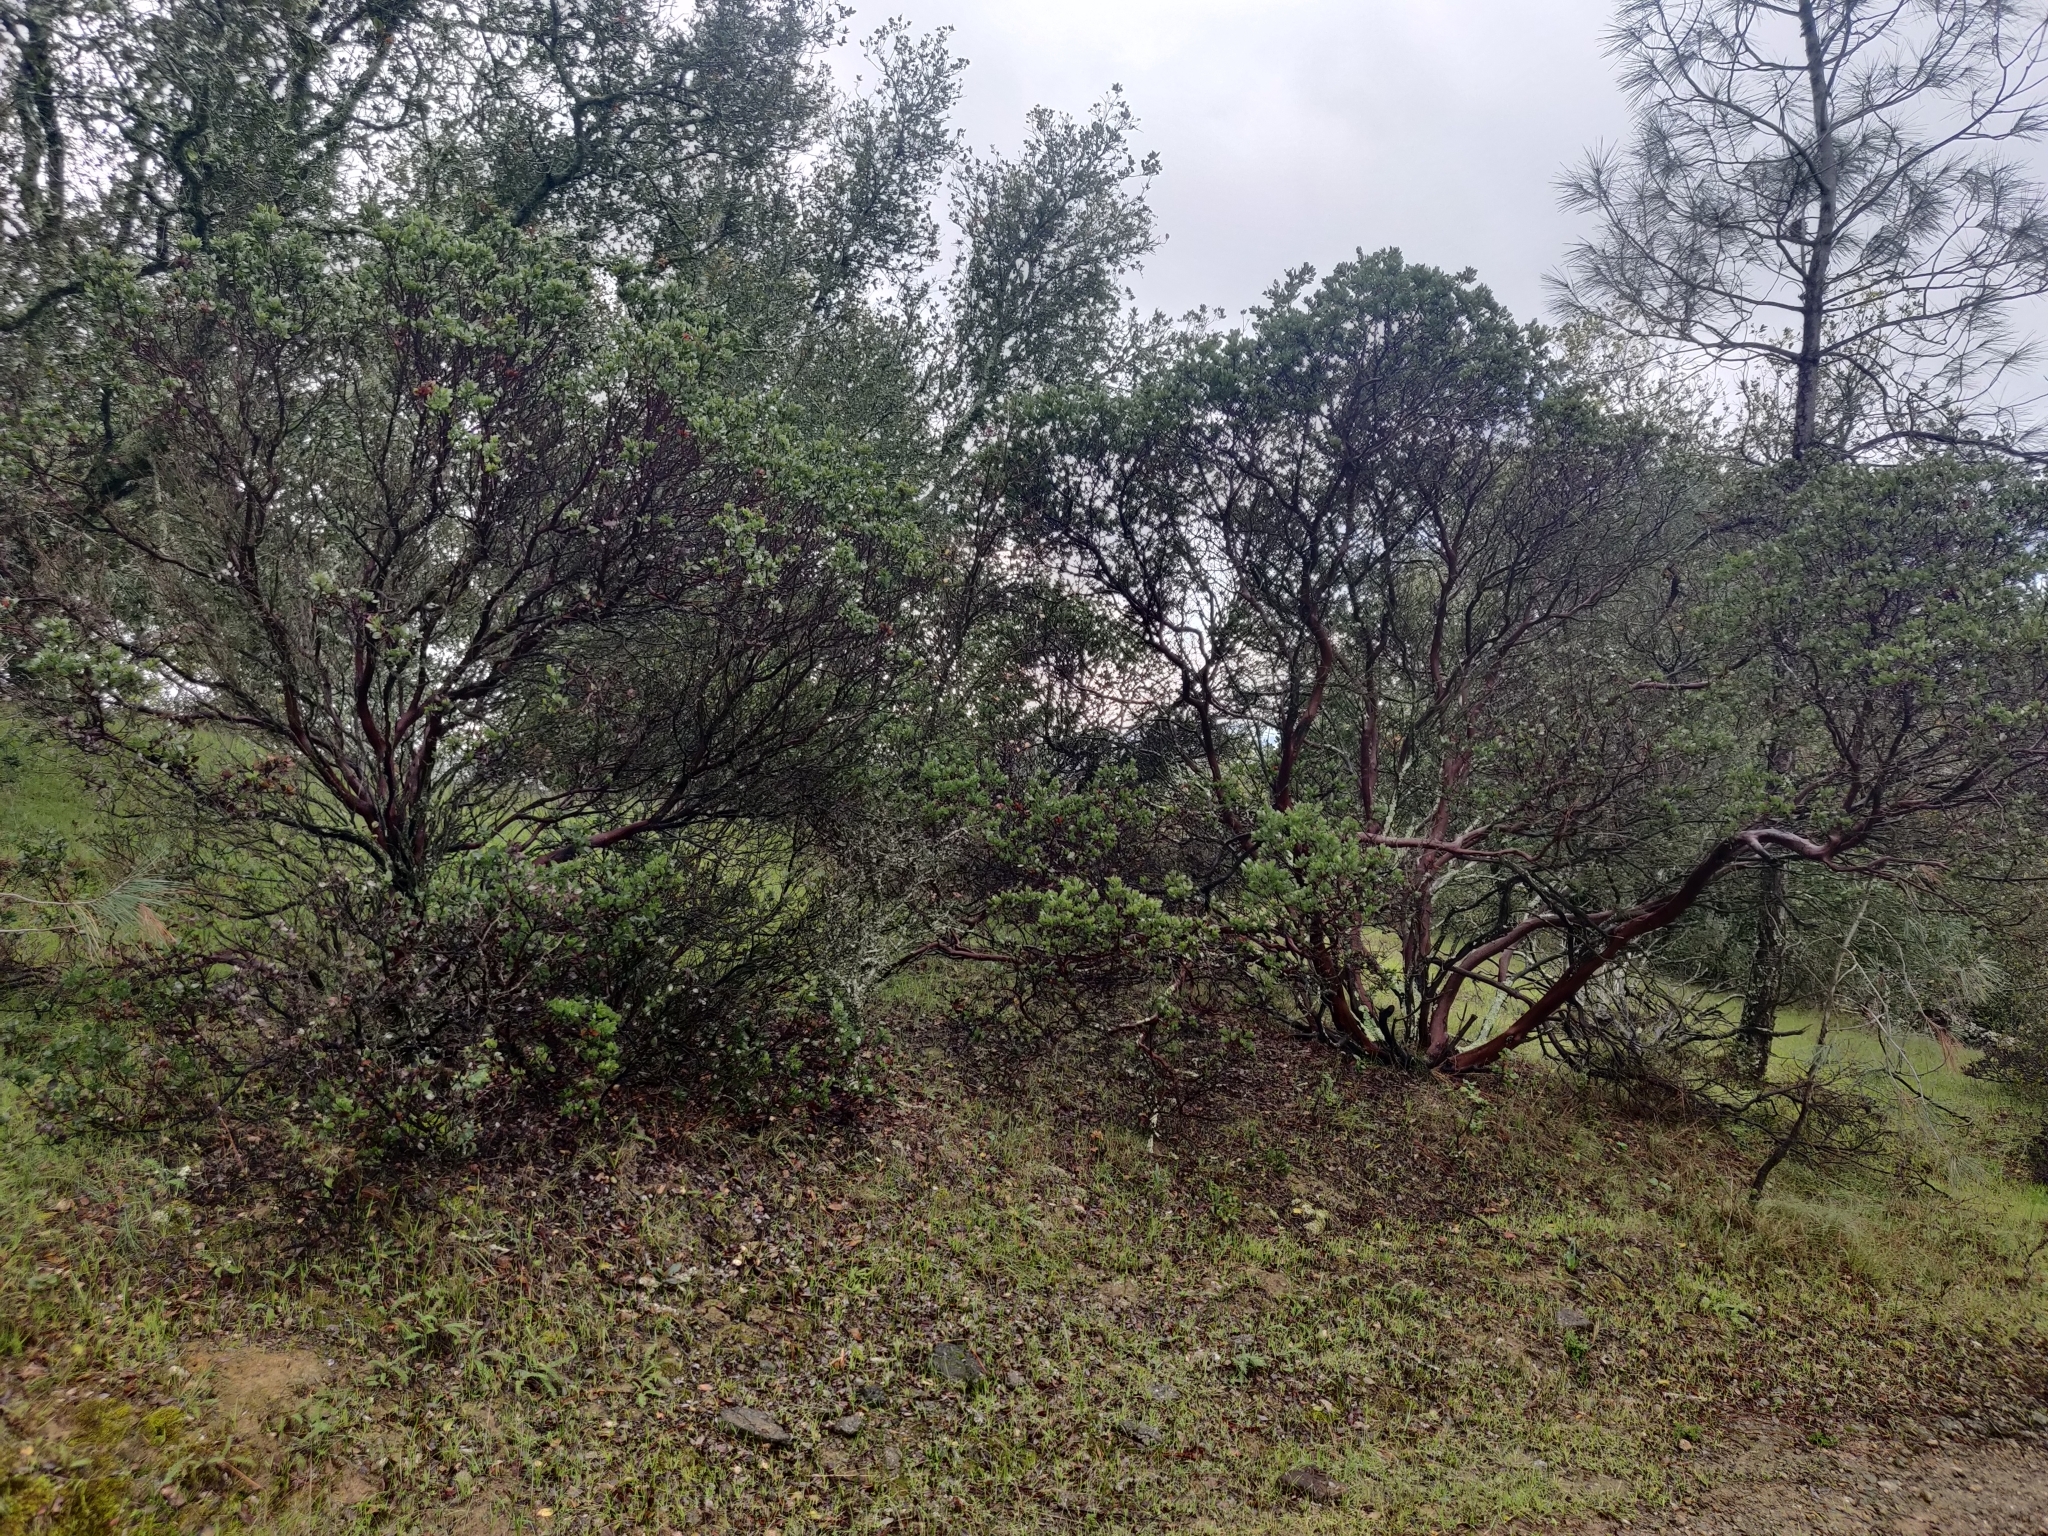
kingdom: Plantae
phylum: Tracheophyta
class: Magnoliopsida
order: Ericales
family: Ericaceae
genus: Arctostaphylos
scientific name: Arctostaphylos manzanita
